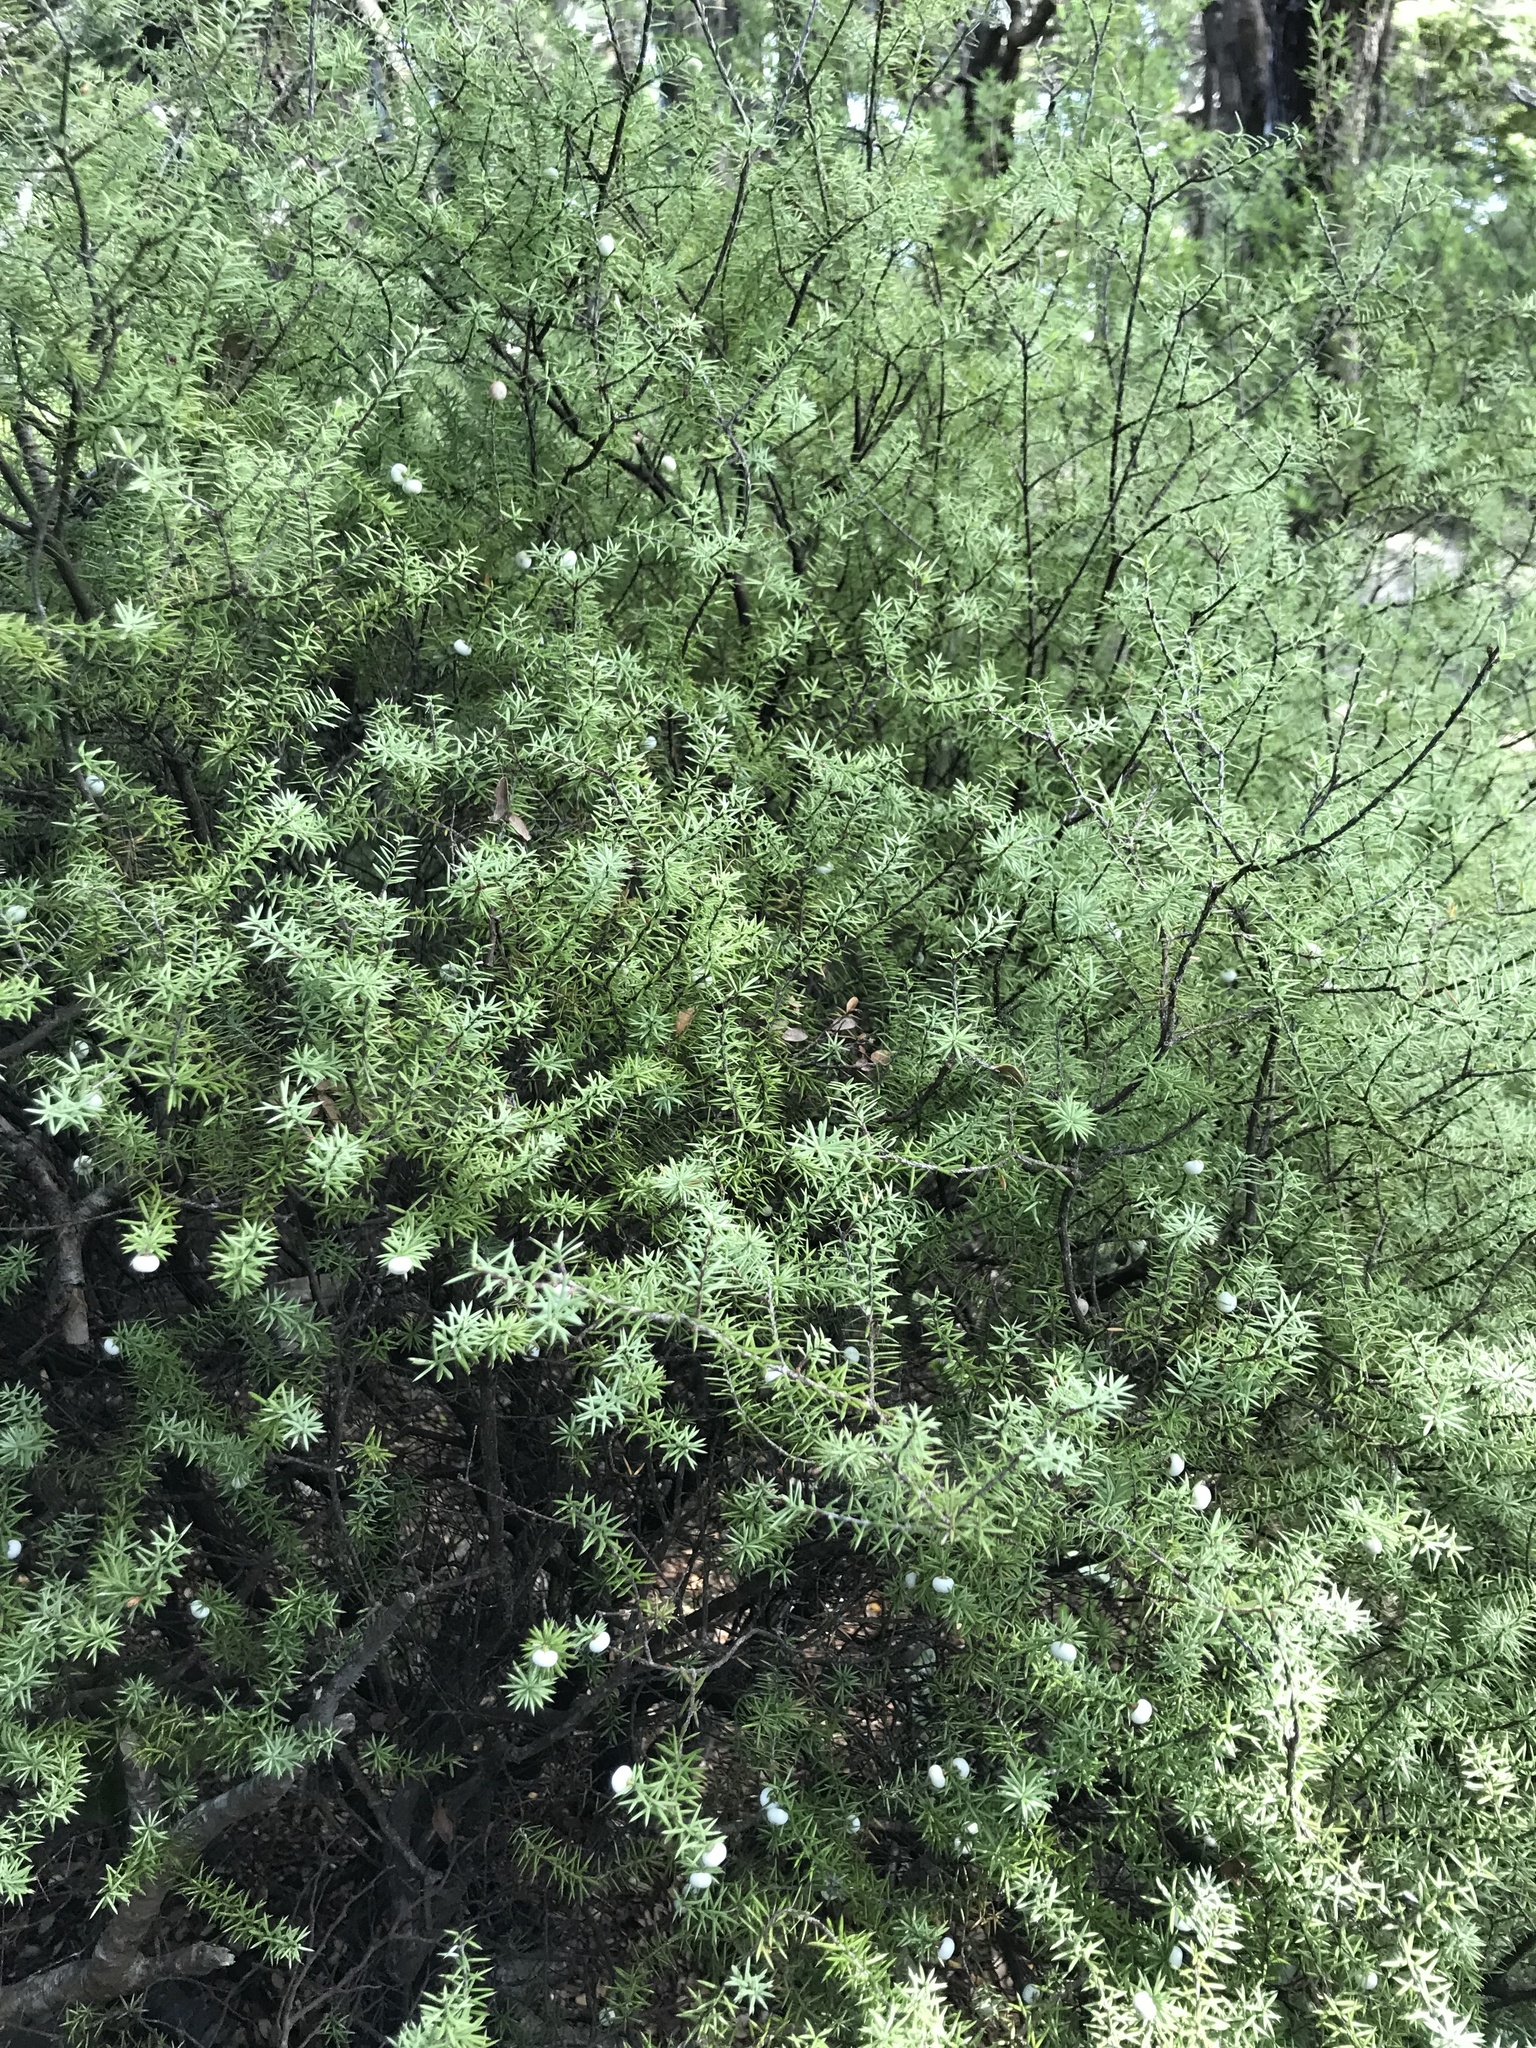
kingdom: Plantae
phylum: Tracheophyta
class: Magnoliopsida
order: Ericales
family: Ericaceae
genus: Leptecophylla
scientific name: Leptecophylla juniperina
